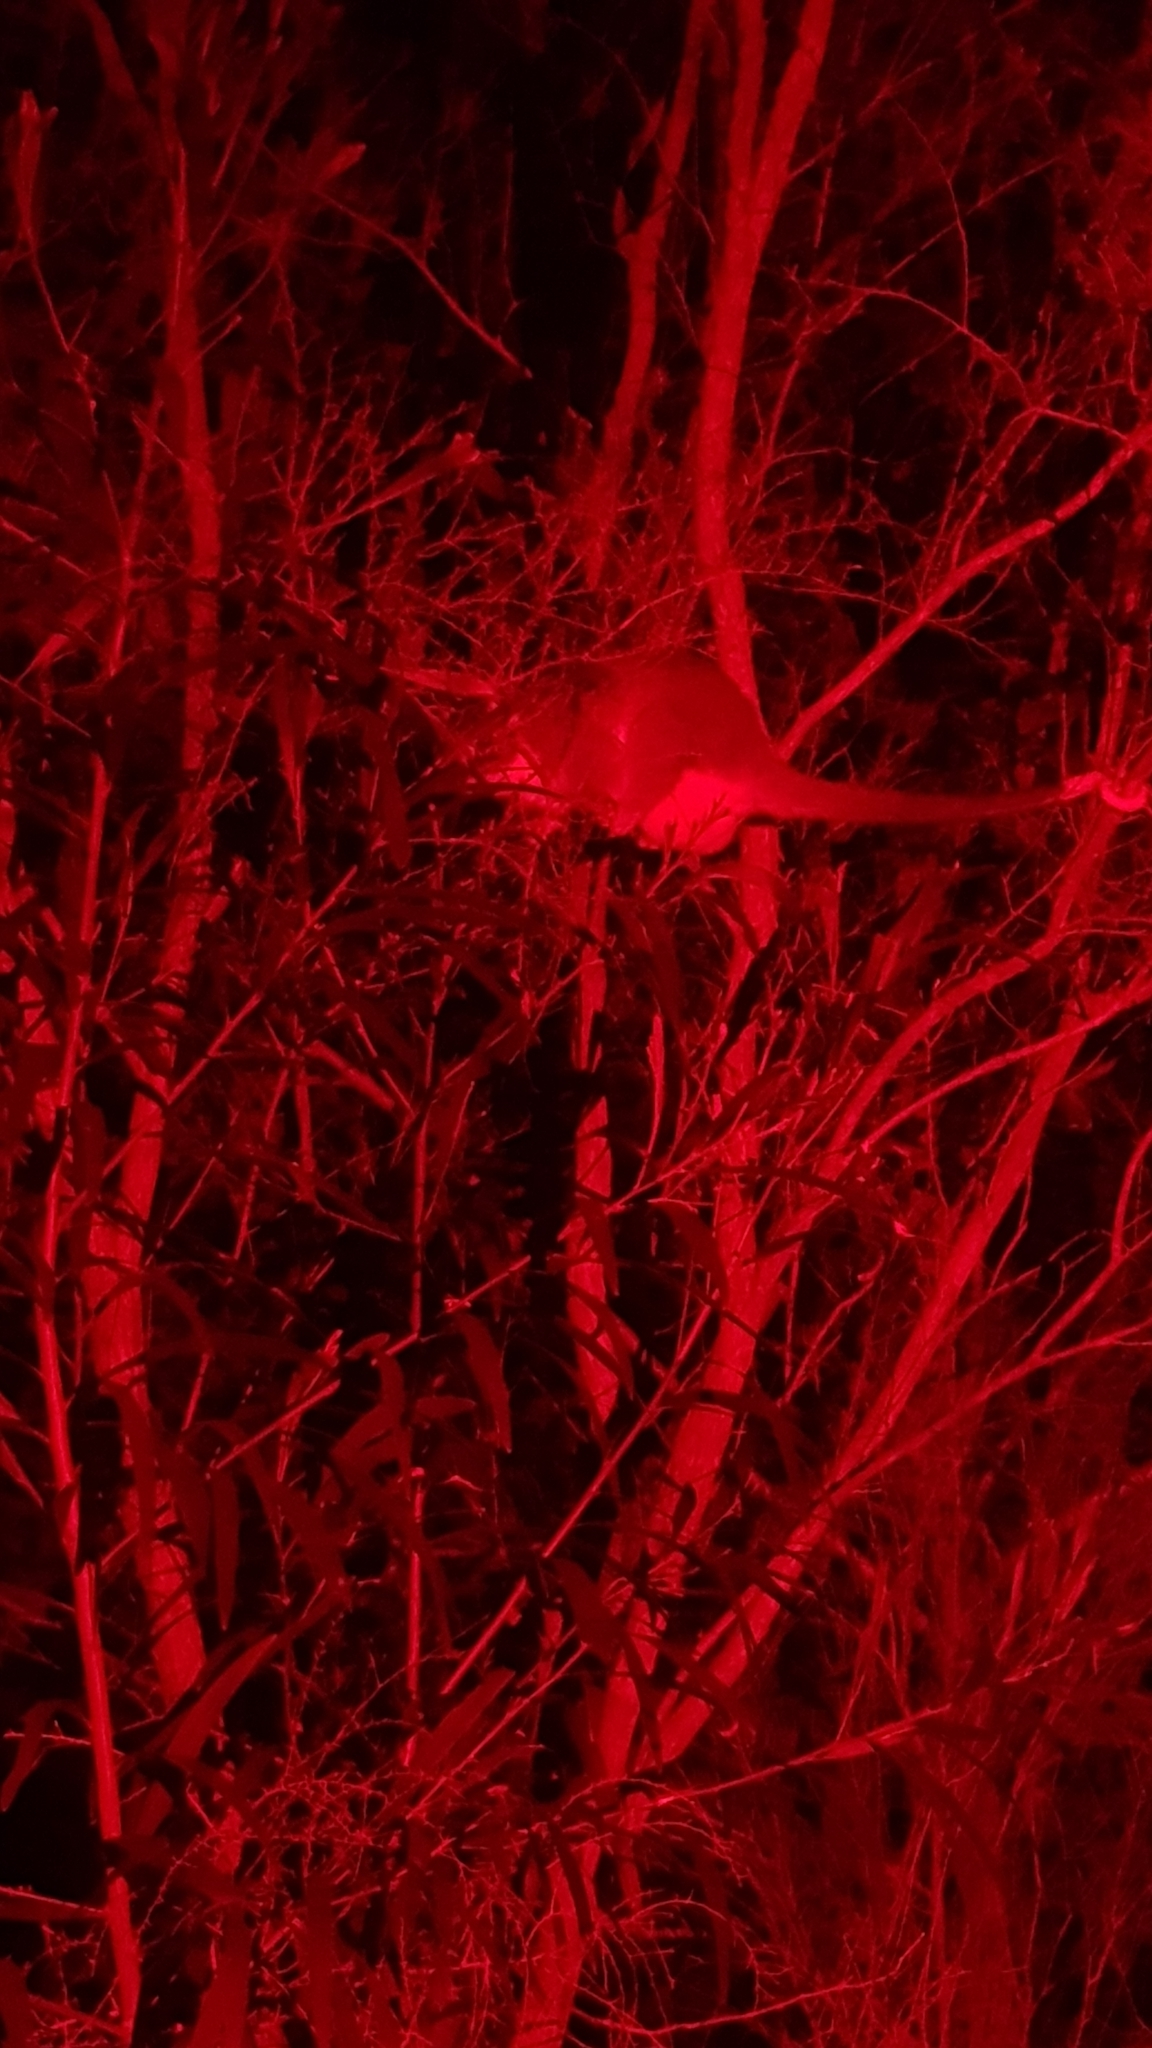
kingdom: Animalia
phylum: Chordata
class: Mammalia
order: Diprotodontia
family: Pseudocheiridae
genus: Pseudocheirus
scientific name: Pseudocheirus peregrinus
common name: Common ringtail possum
